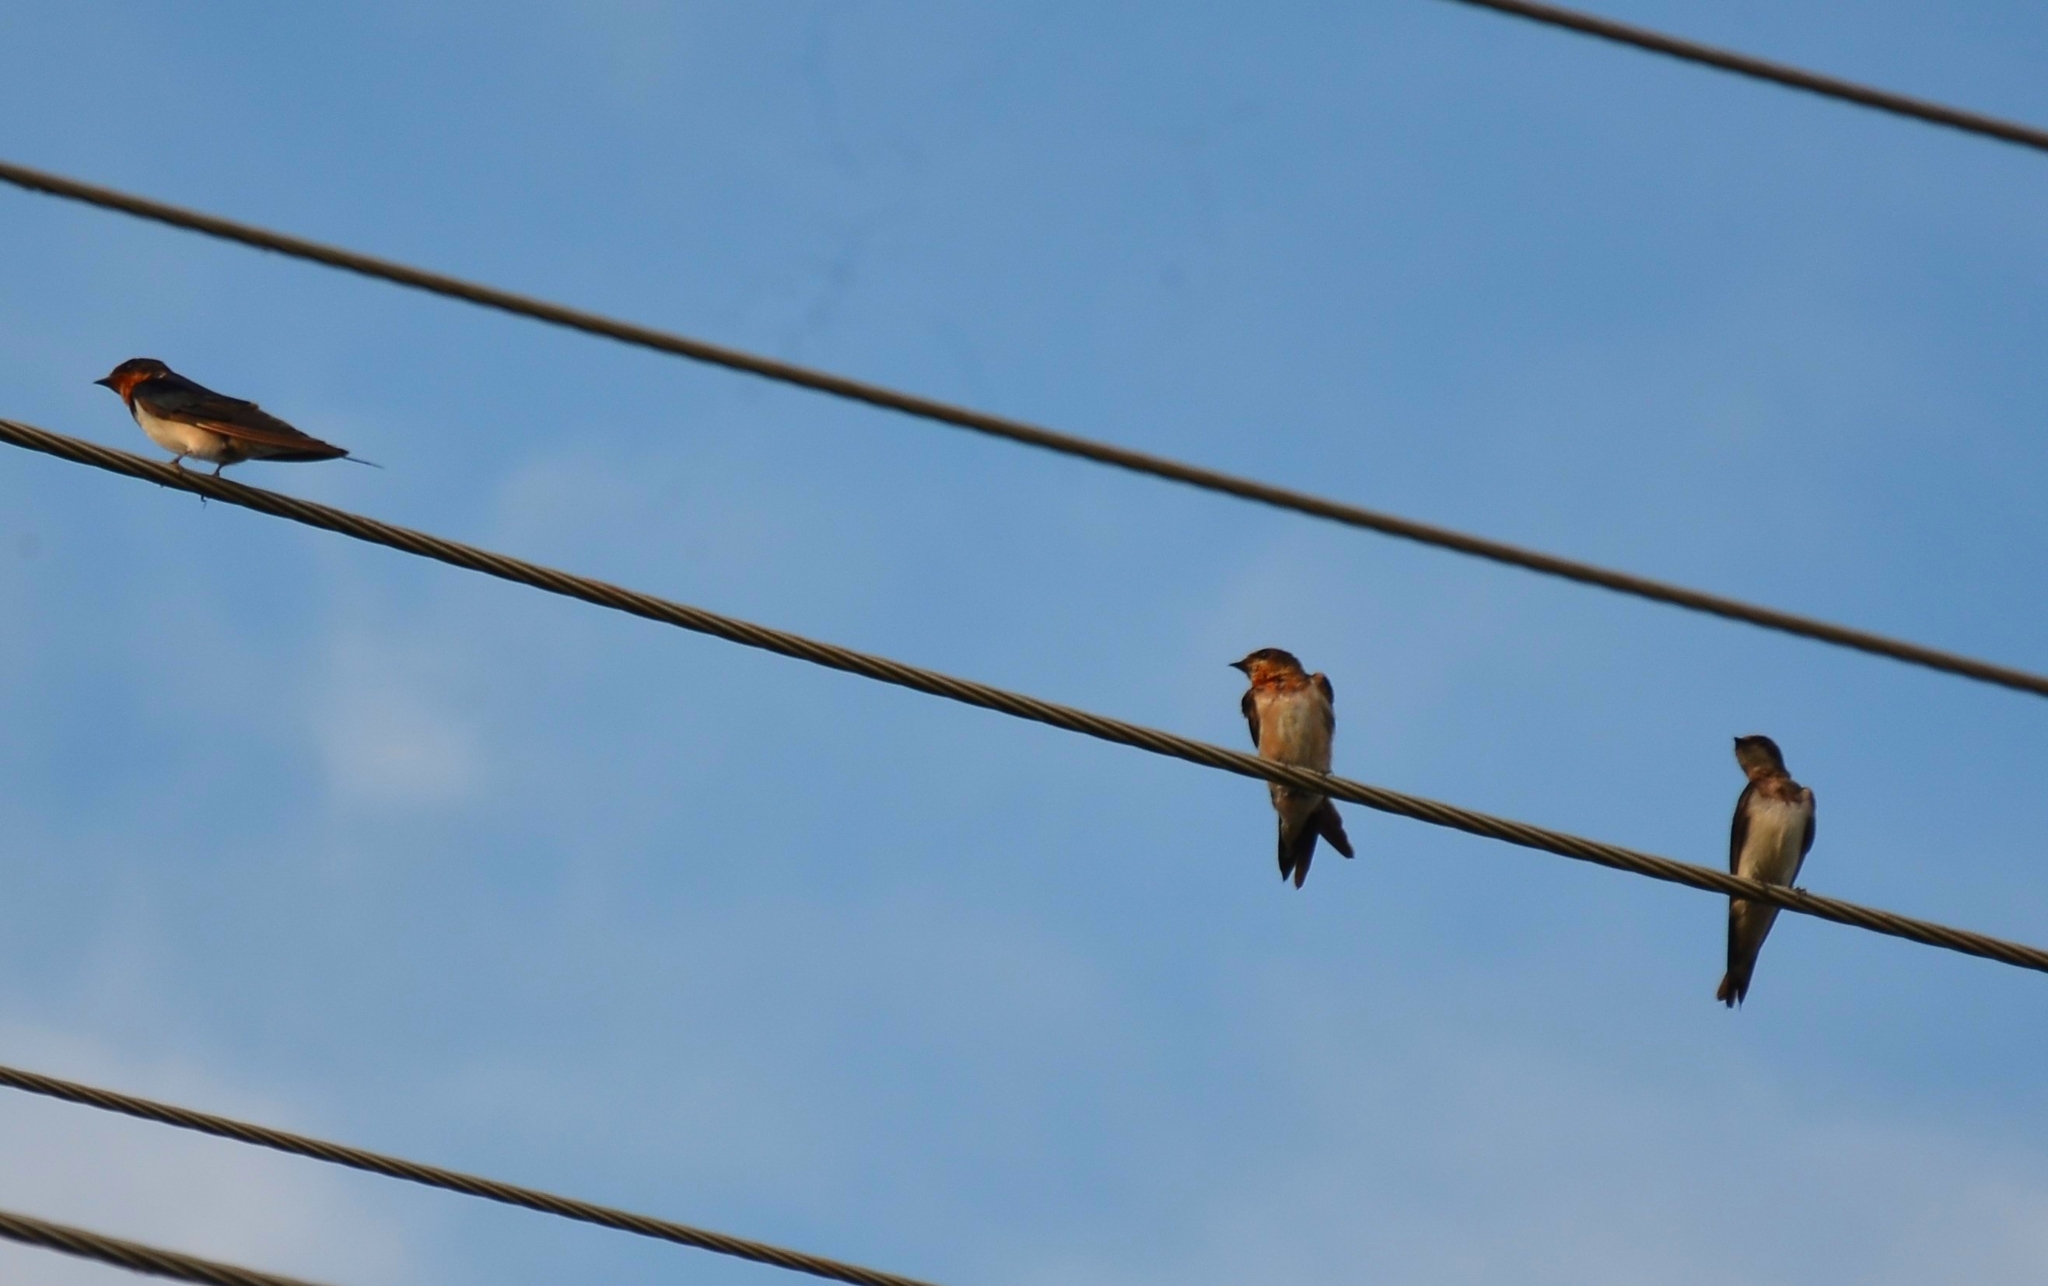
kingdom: Animalia
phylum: Chordata
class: Aves
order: Passeriformes
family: Hirundinidae
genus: Hirundo
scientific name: Hirundo rustica
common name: Barn swallow
